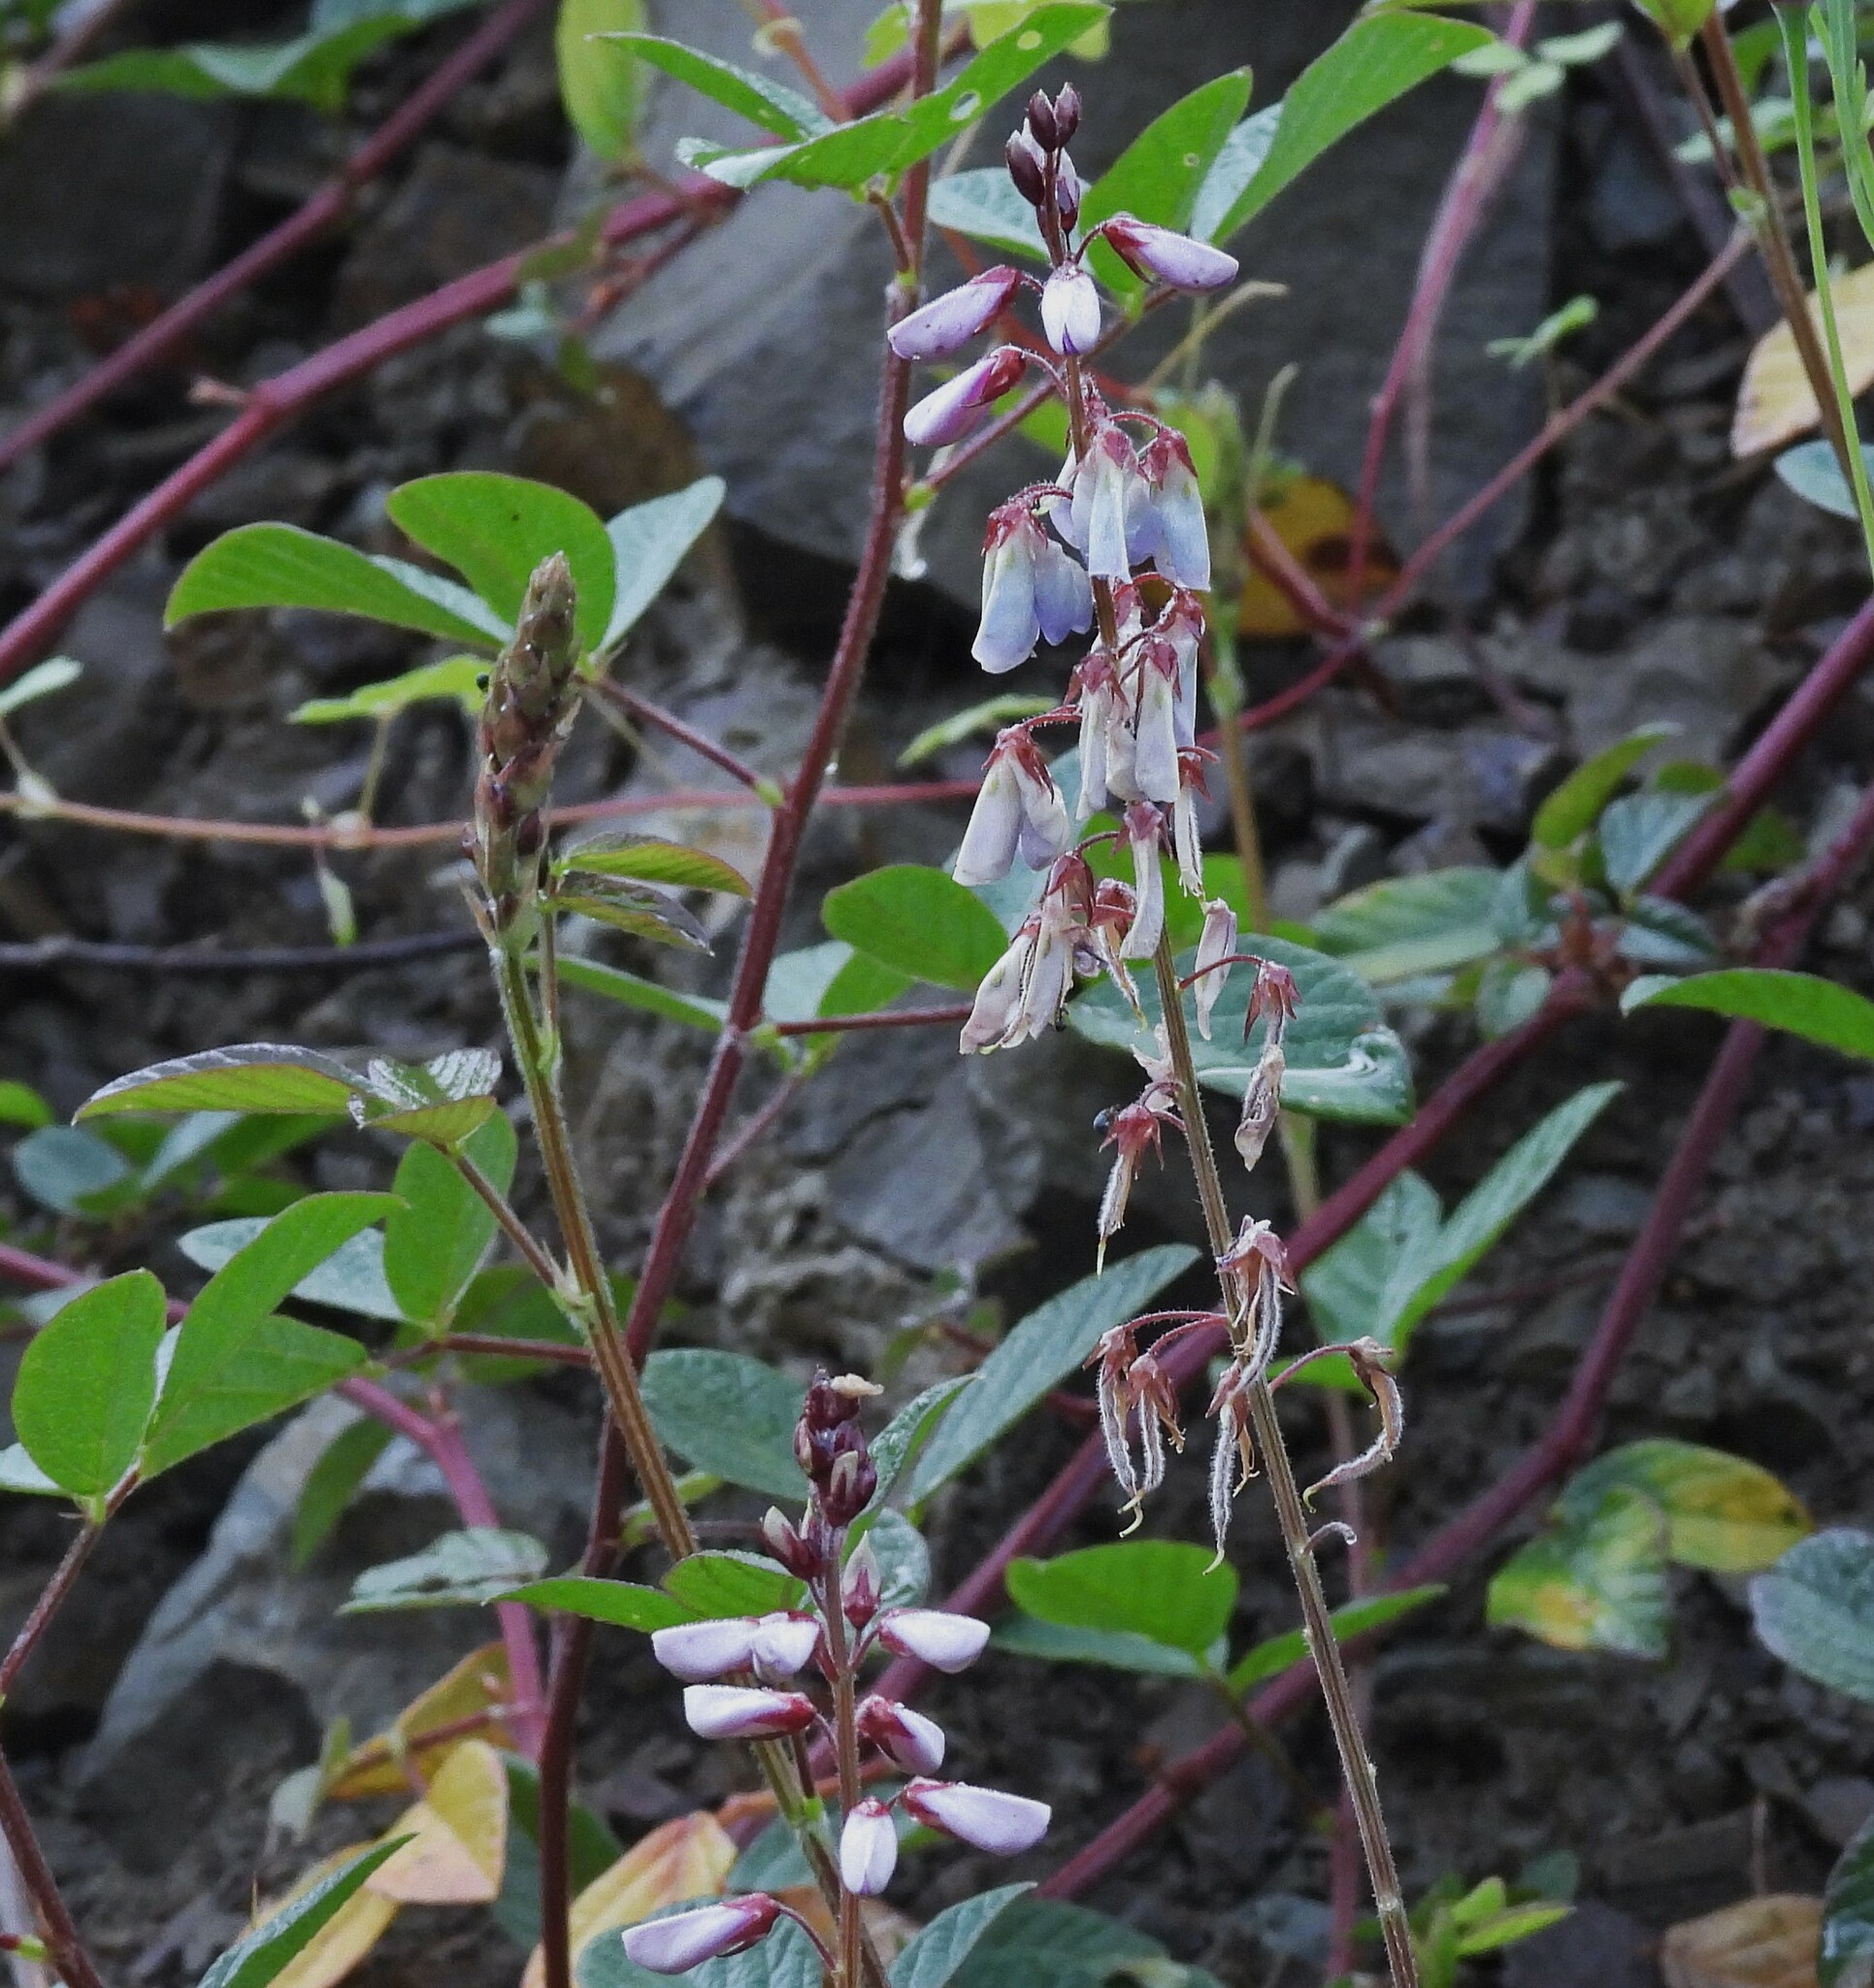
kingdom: Plantae
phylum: Tracheophyta
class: Magnoliopsida
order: Fabales
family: Fabaceae
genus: Desmodium
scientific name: Desmodium subsericeum
